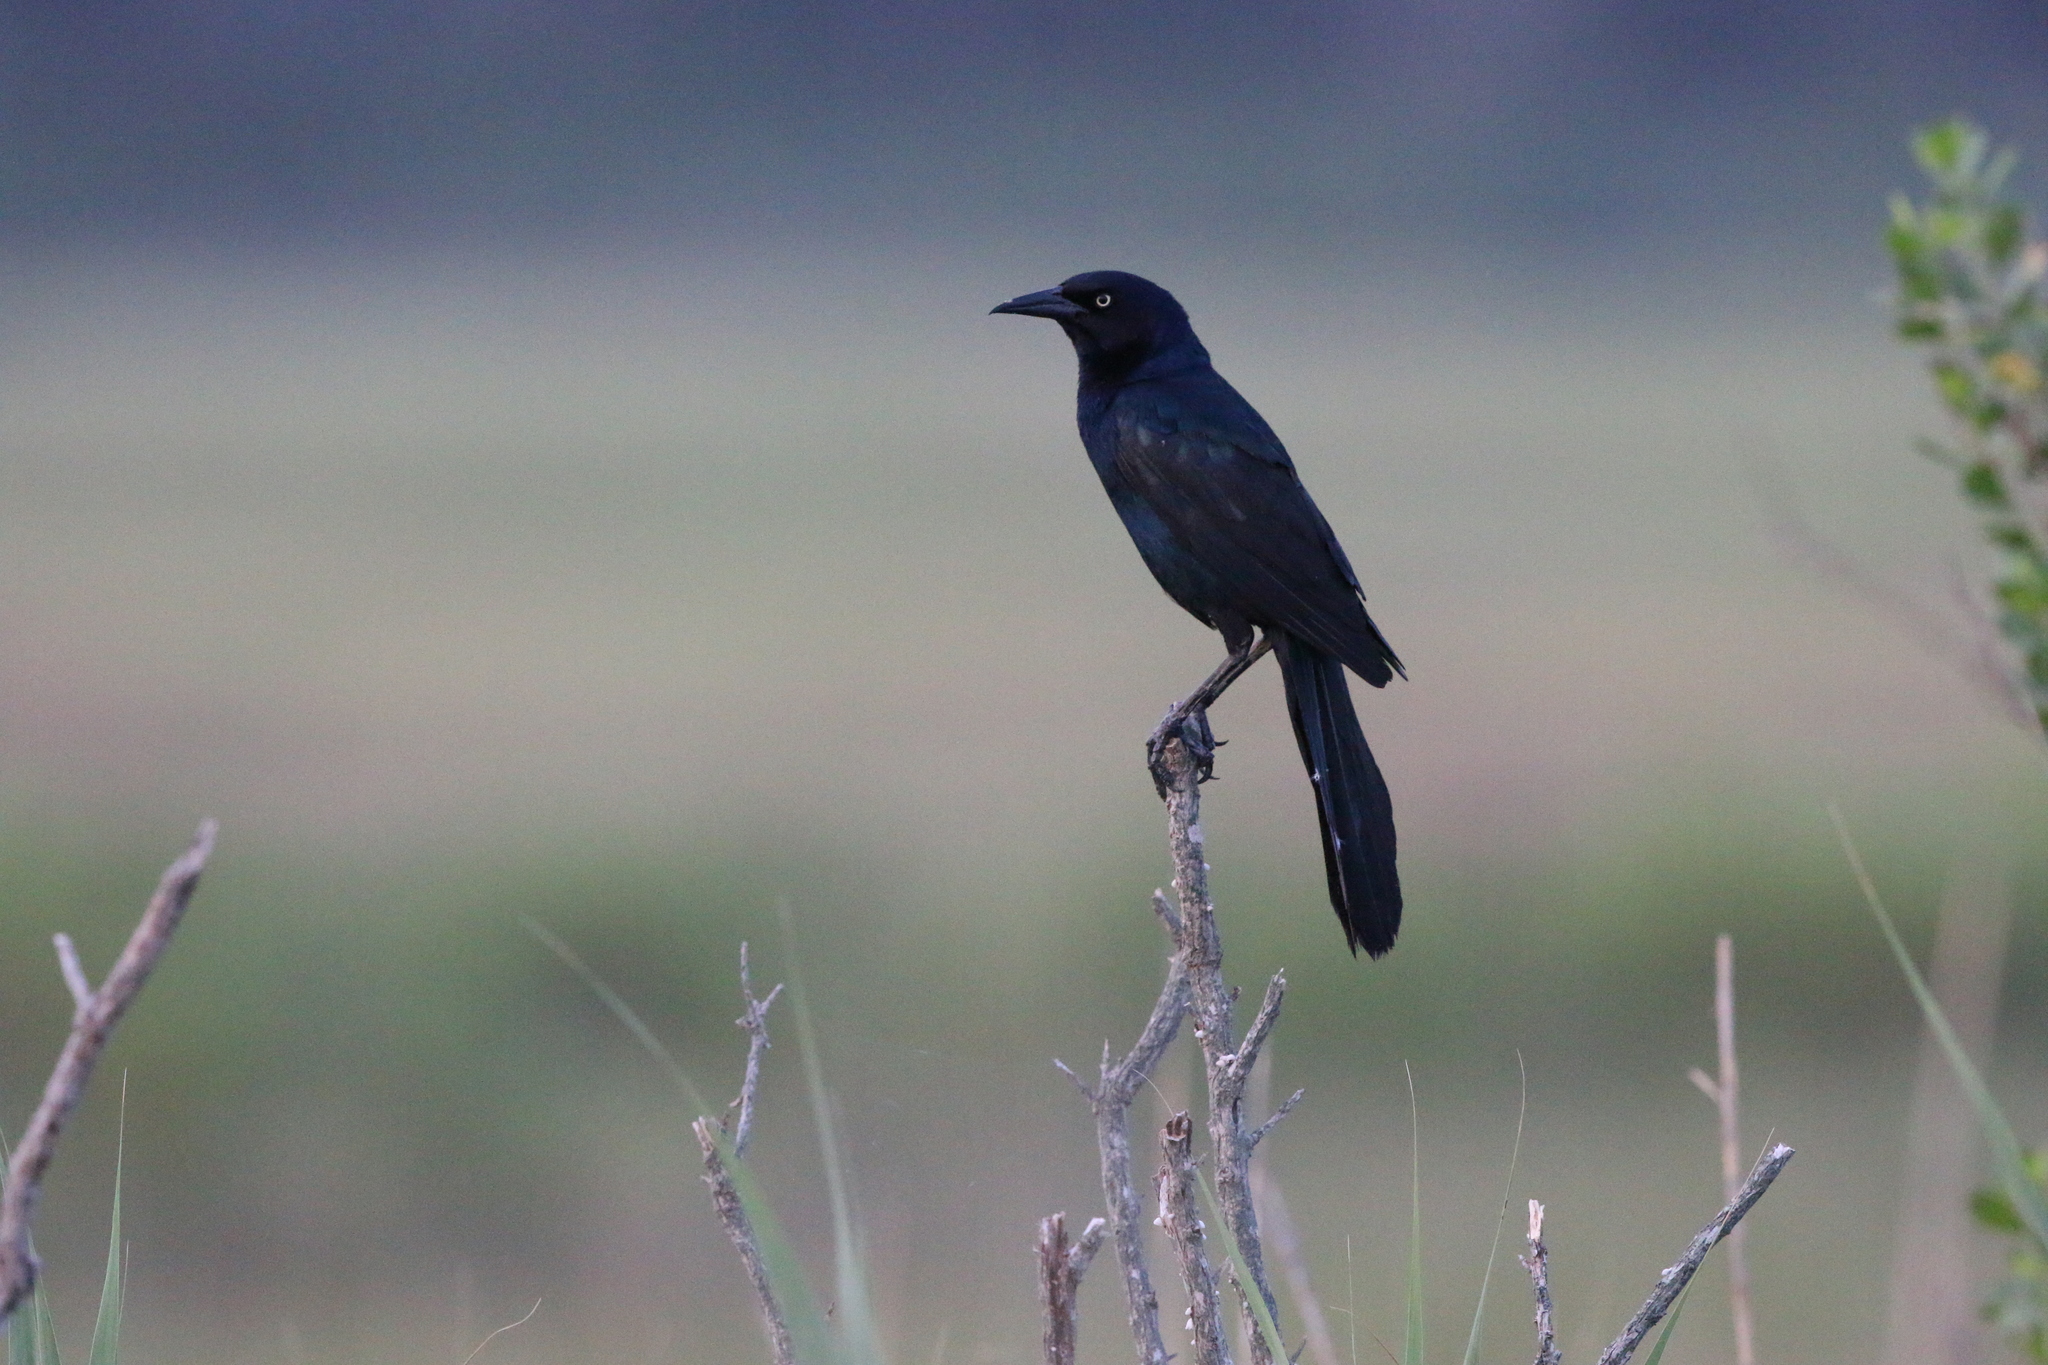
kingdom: Animalia
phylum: Chordata
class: Aves
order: Passeriformes
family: Icteridae
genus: Quiscalus
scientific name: Quiscalus major
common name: Boat-tailed grackle
